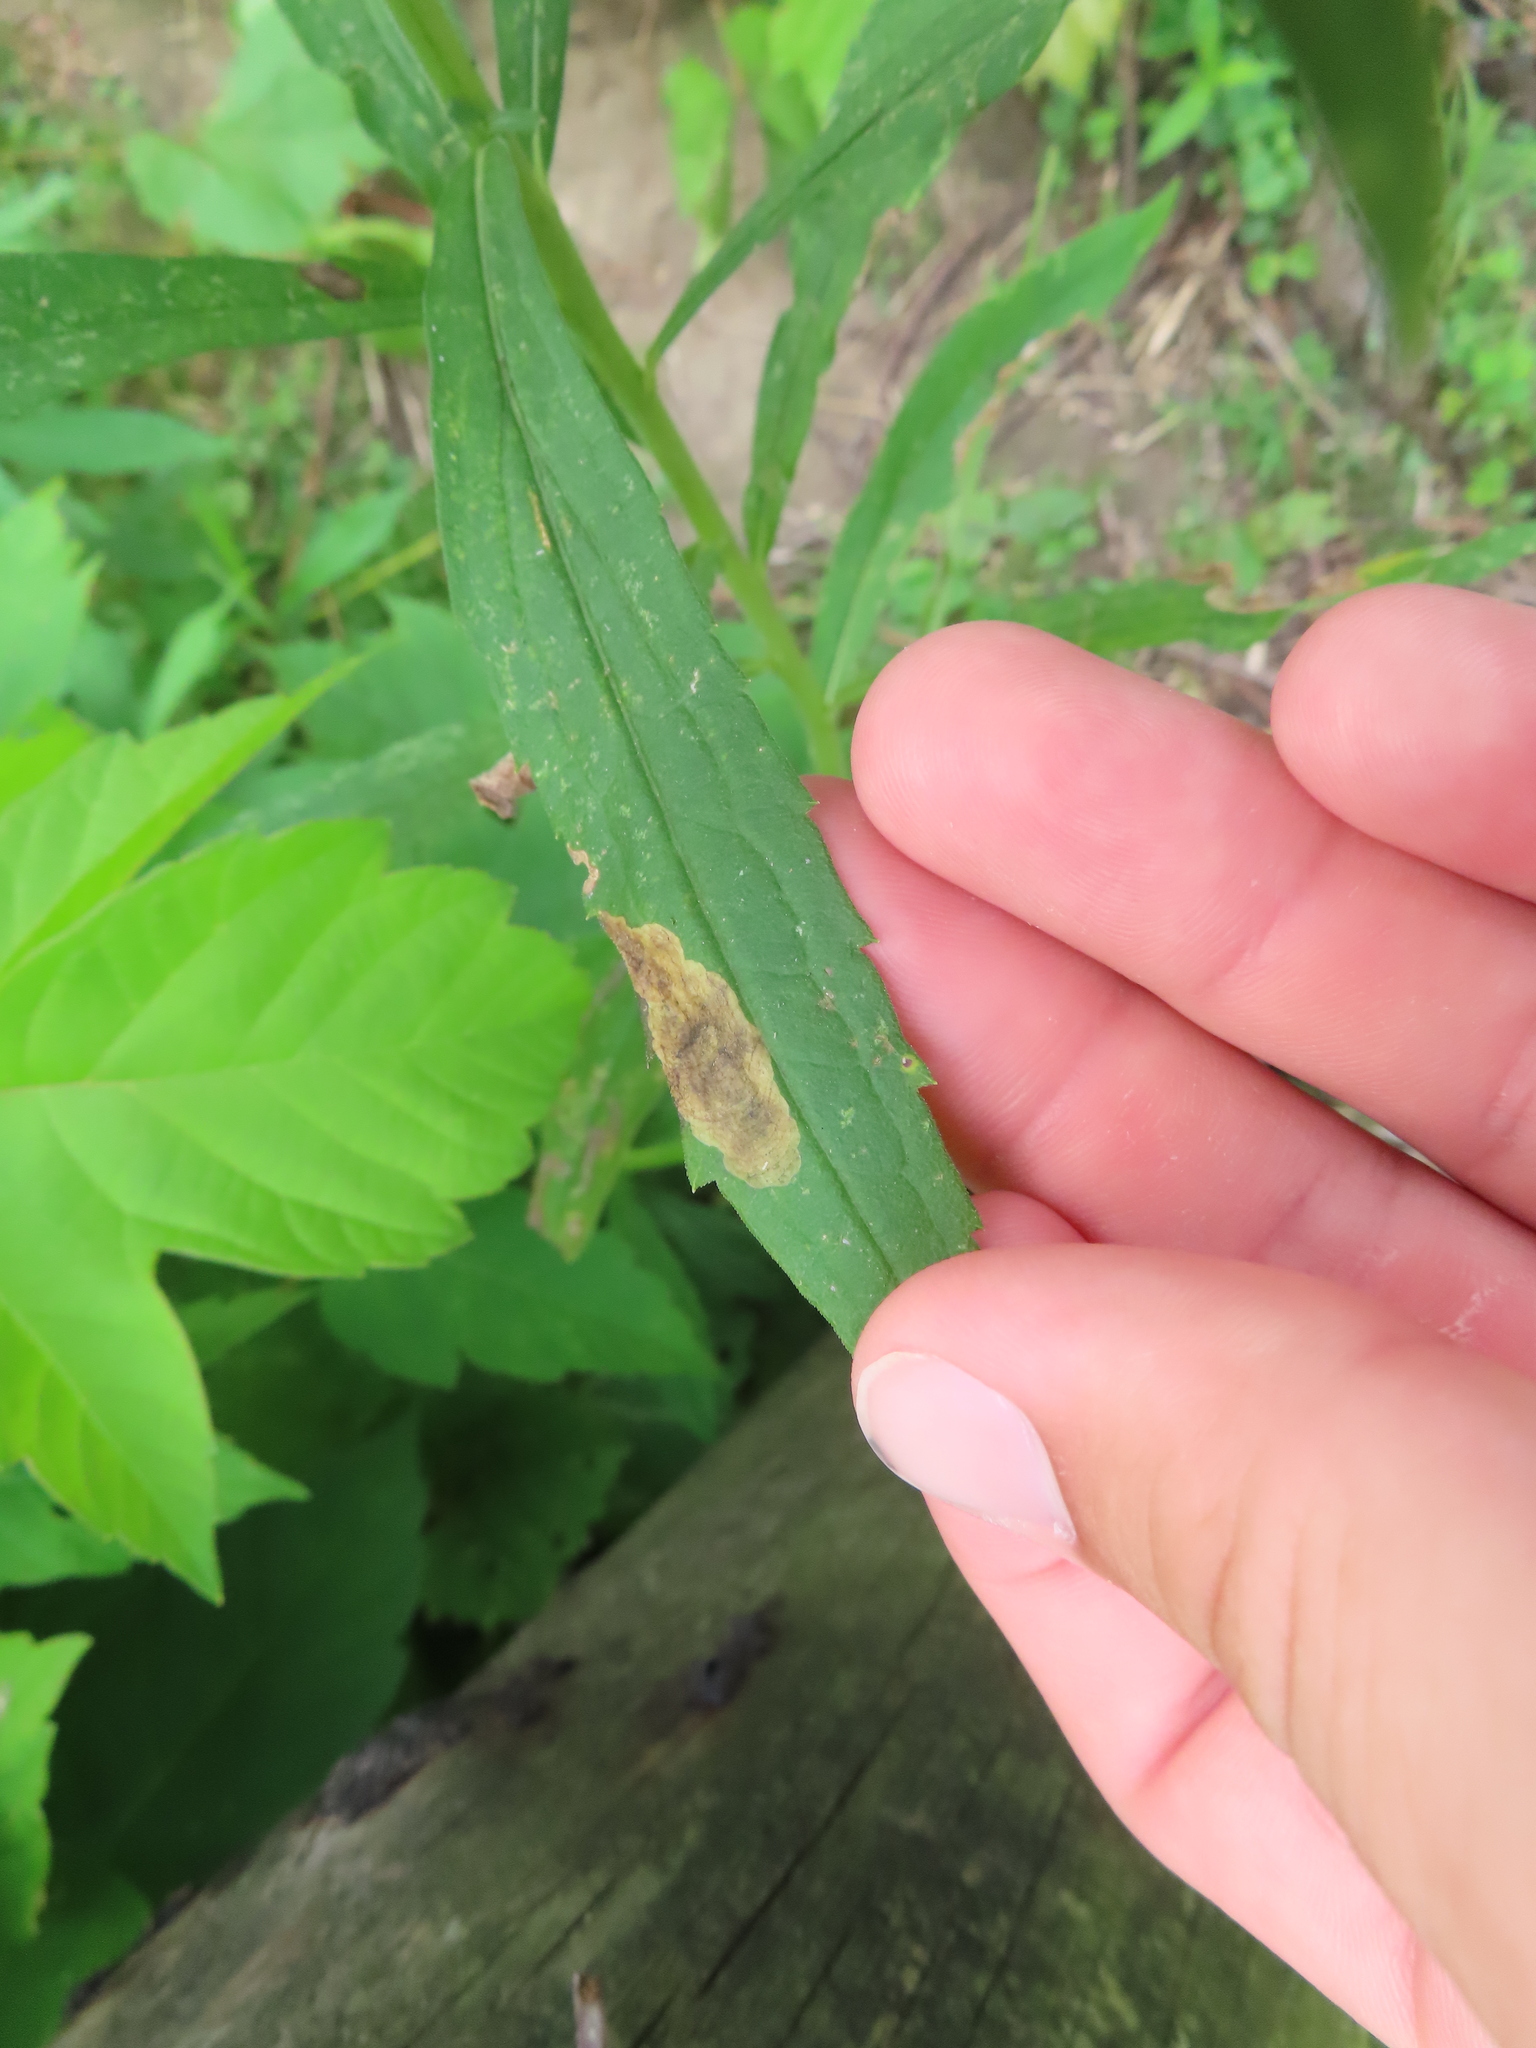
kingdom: Animalia
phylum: Arthropoda
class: Insecta
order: Diptera
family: Agromyzidae
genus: Nemorimyza
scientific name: Nemorimyza posticata
